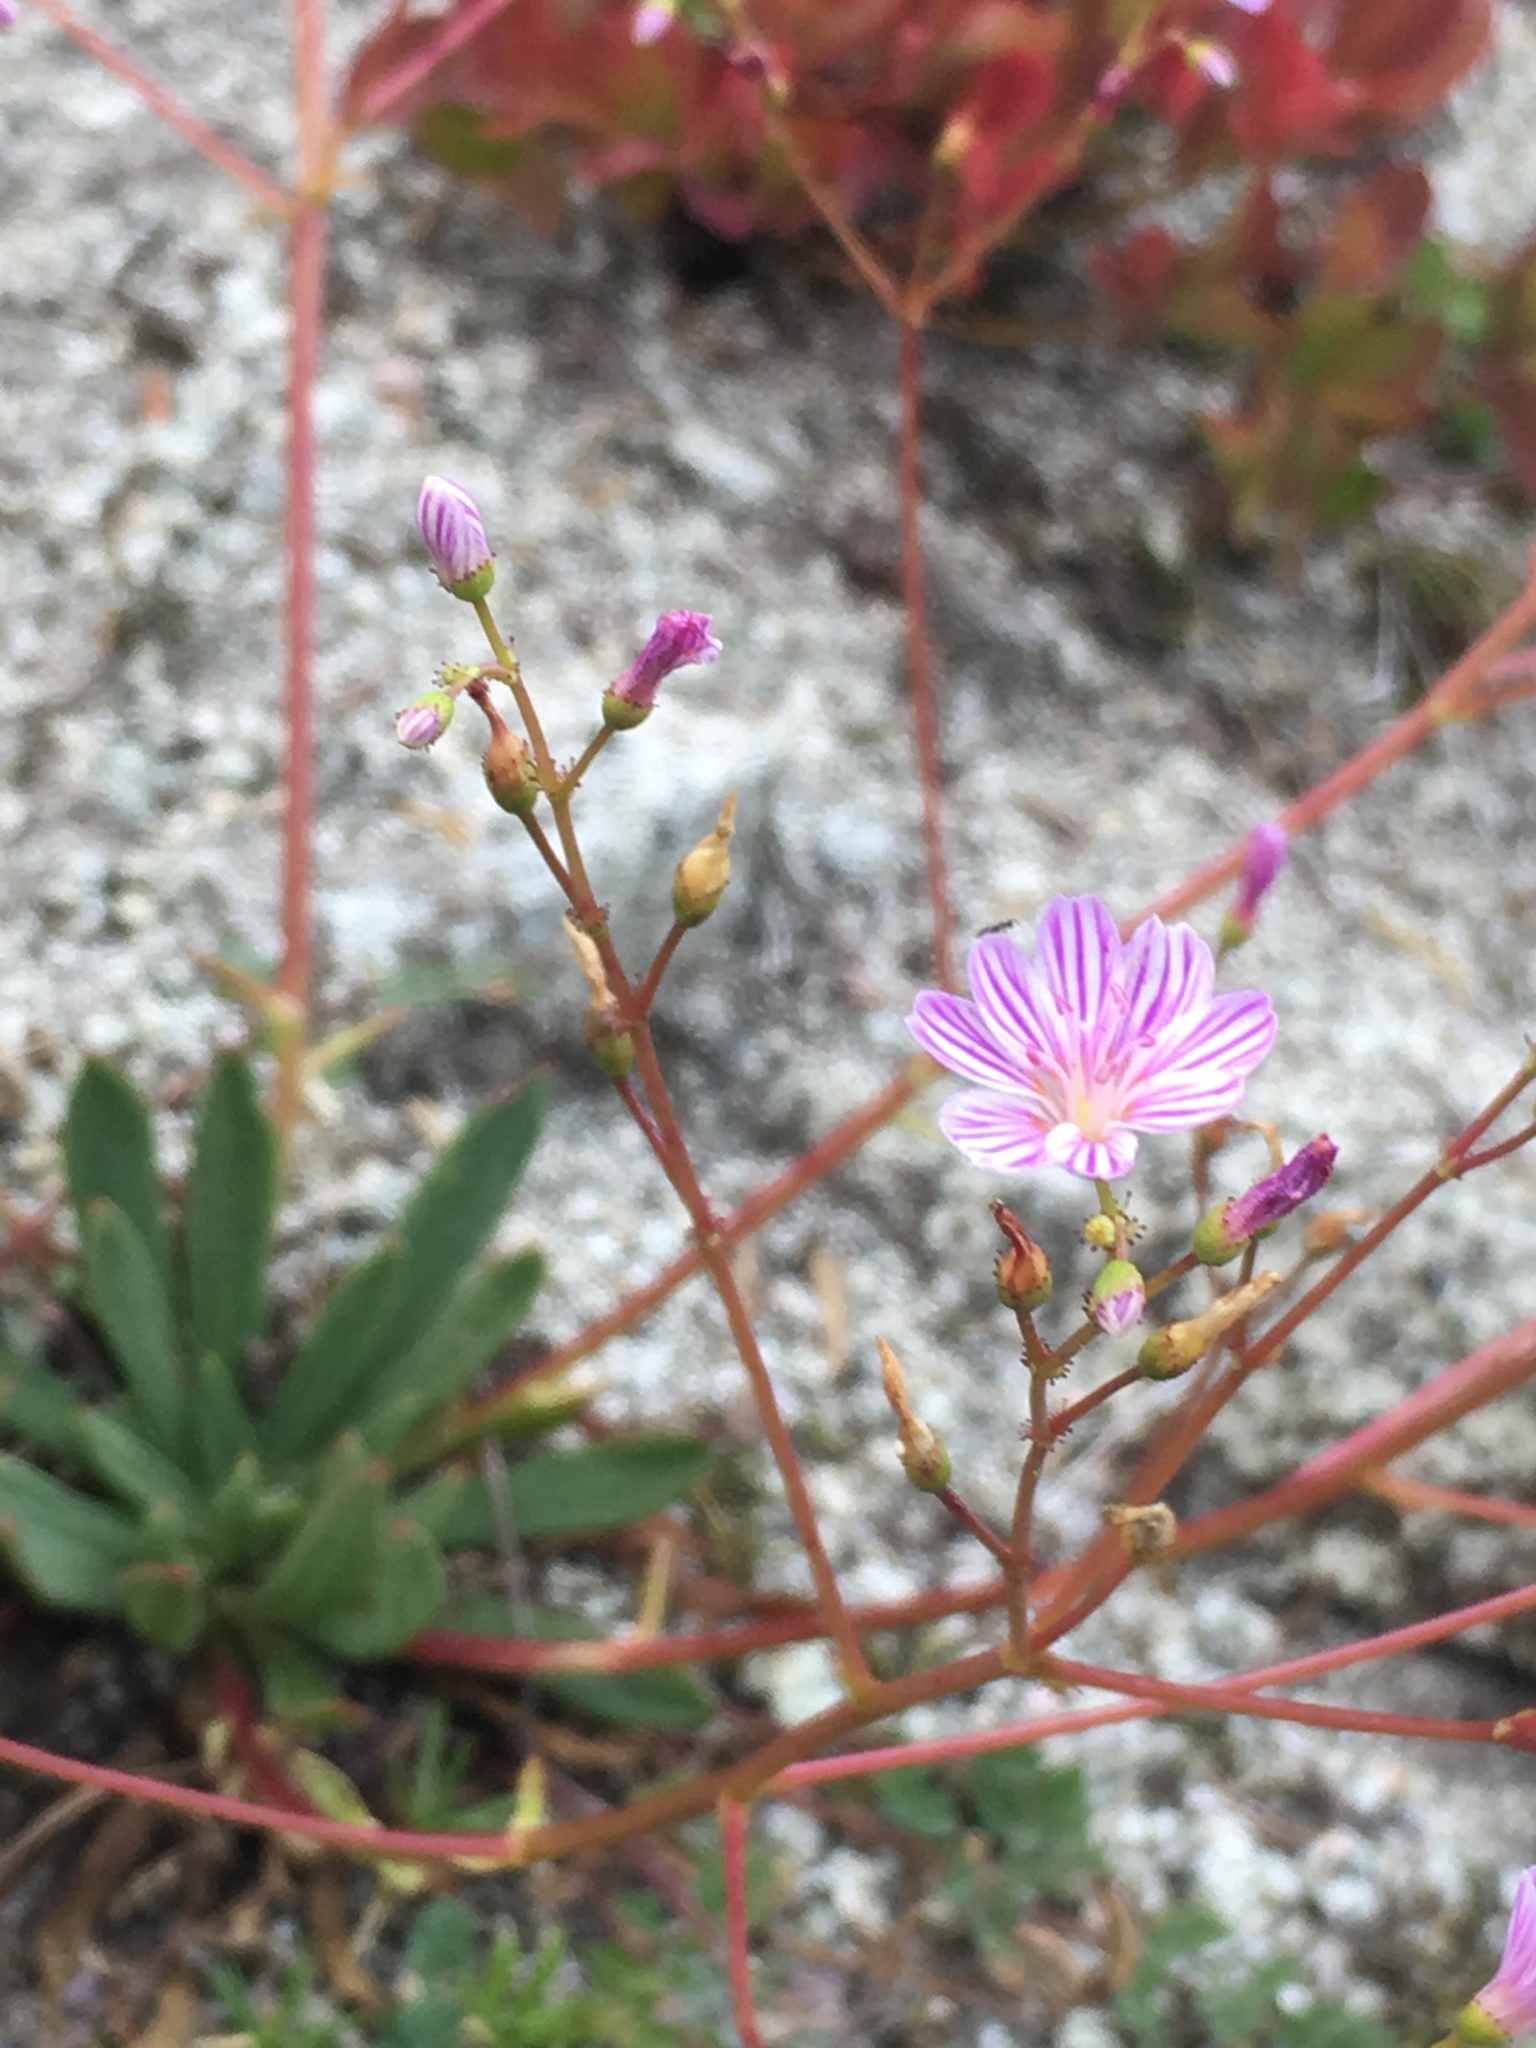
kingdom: Plantae
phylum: Tracheophyta
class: Magnoliopsida
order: Caryophyllales
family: Montiaceae
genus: Lewisia
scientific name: Lewisia columbiana
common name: Columbia lewisia
